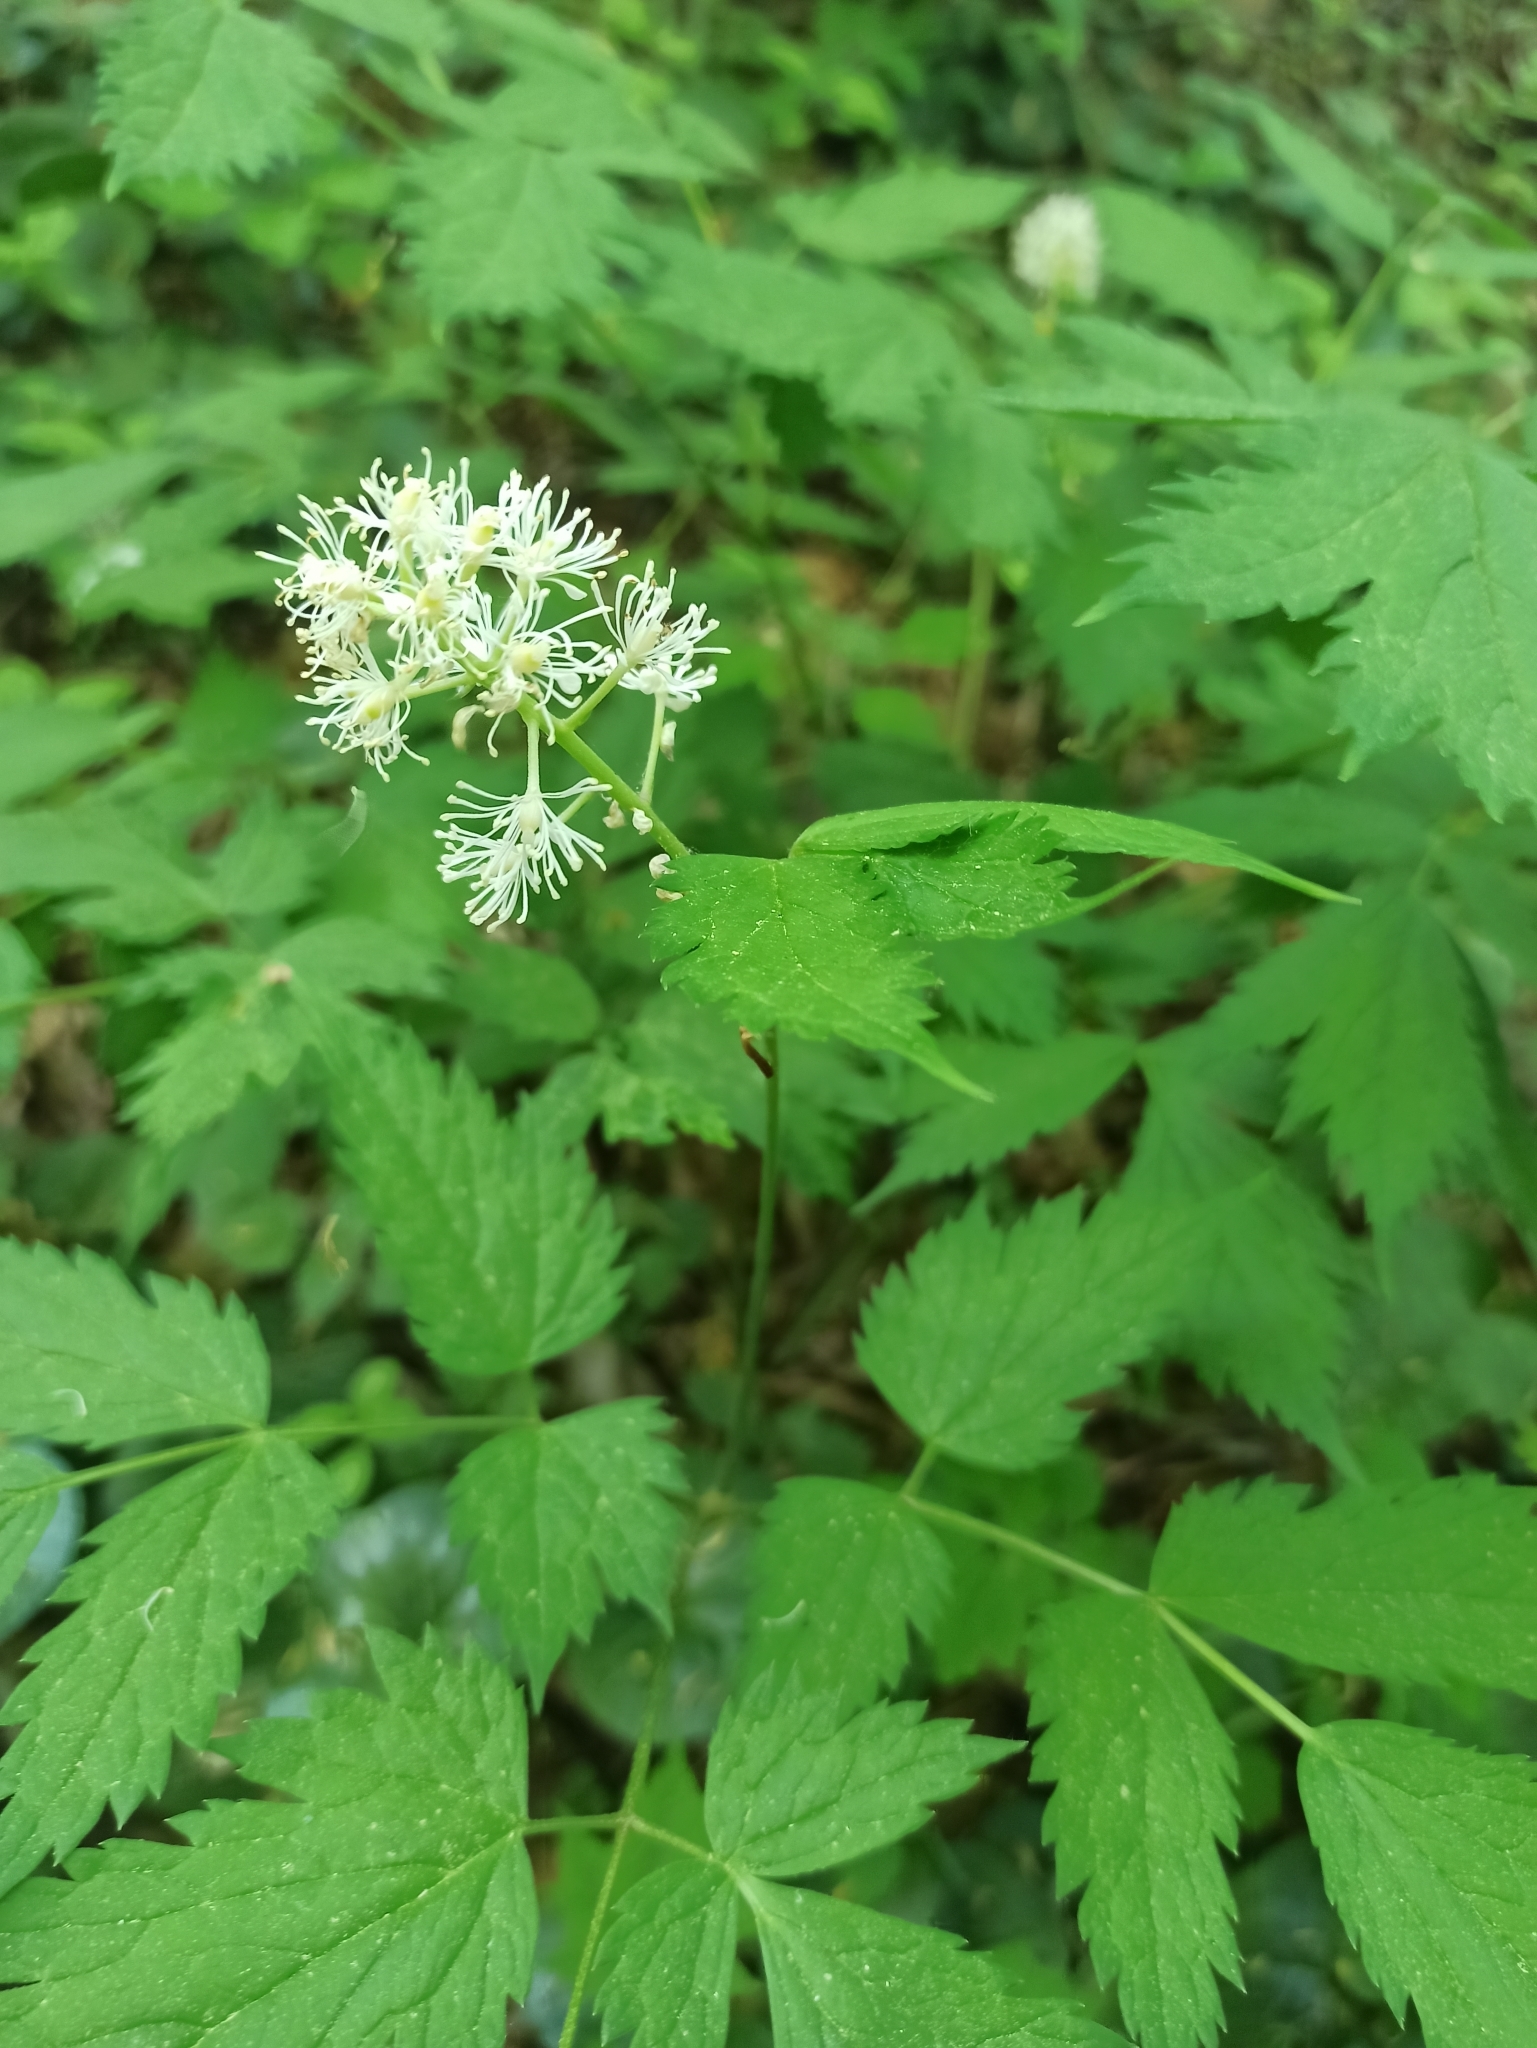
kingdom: Plantae
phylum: Tracheophyta
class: Magnoliopsida
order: Ranunculales
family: Ranunculaceae
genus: Actaea
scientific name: Actaea spicata
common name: Baneberry
